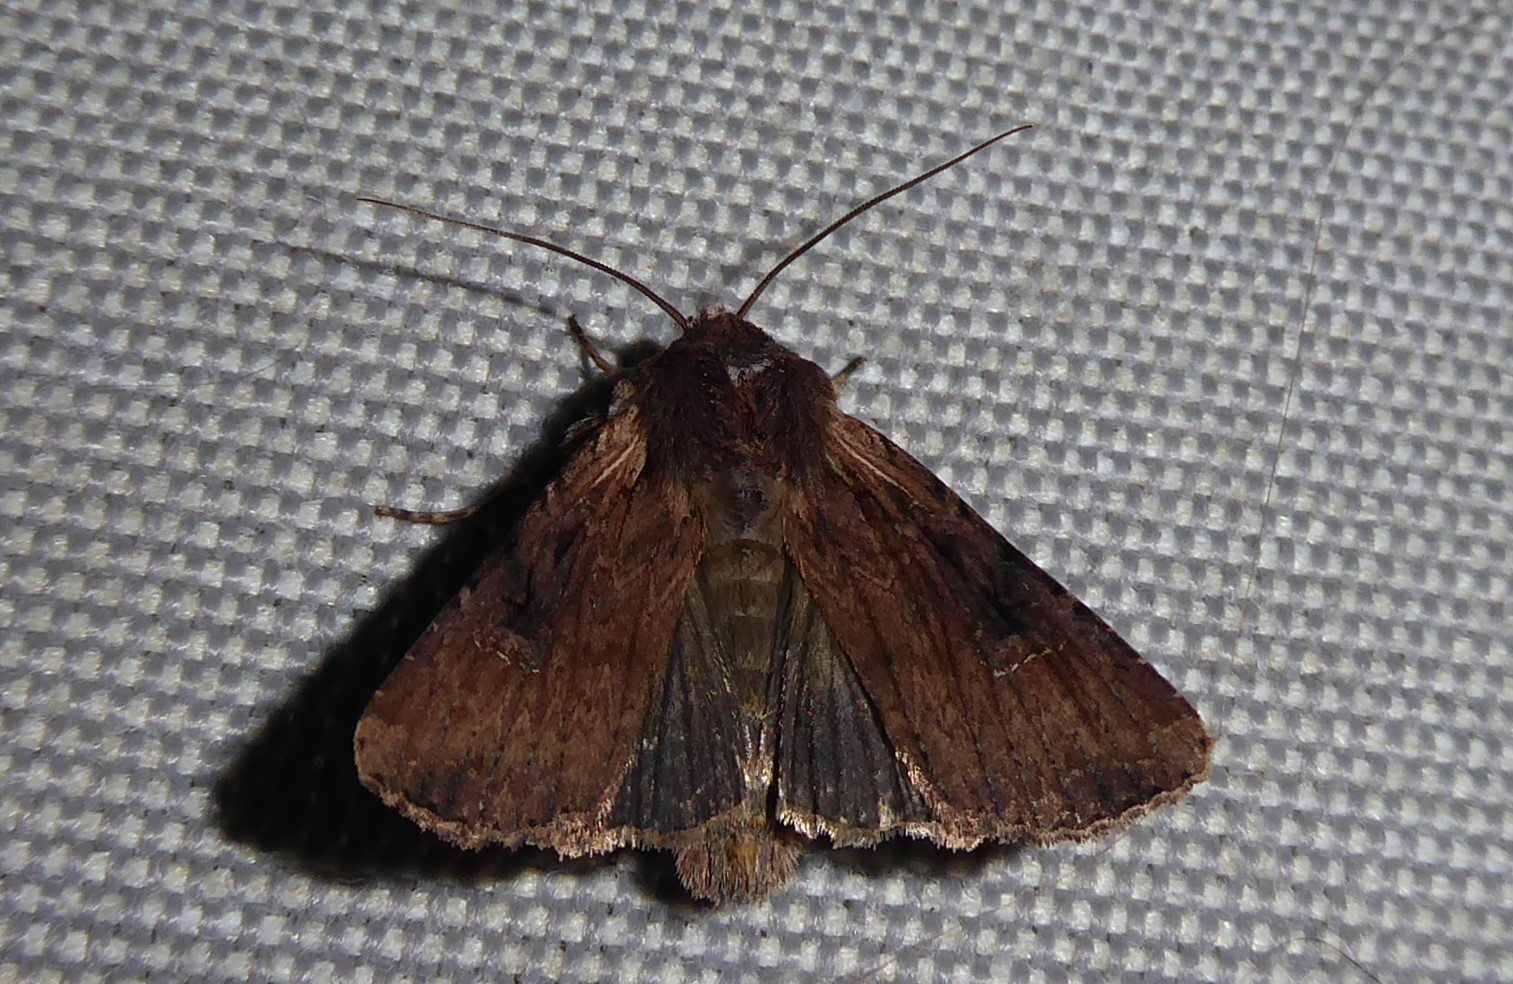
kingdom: Animalia
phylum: Arthropoda
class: Insecta
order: Lepidoptera
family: Noctuidae
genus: Ichneutica
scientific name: Ichneutica omoplaca
